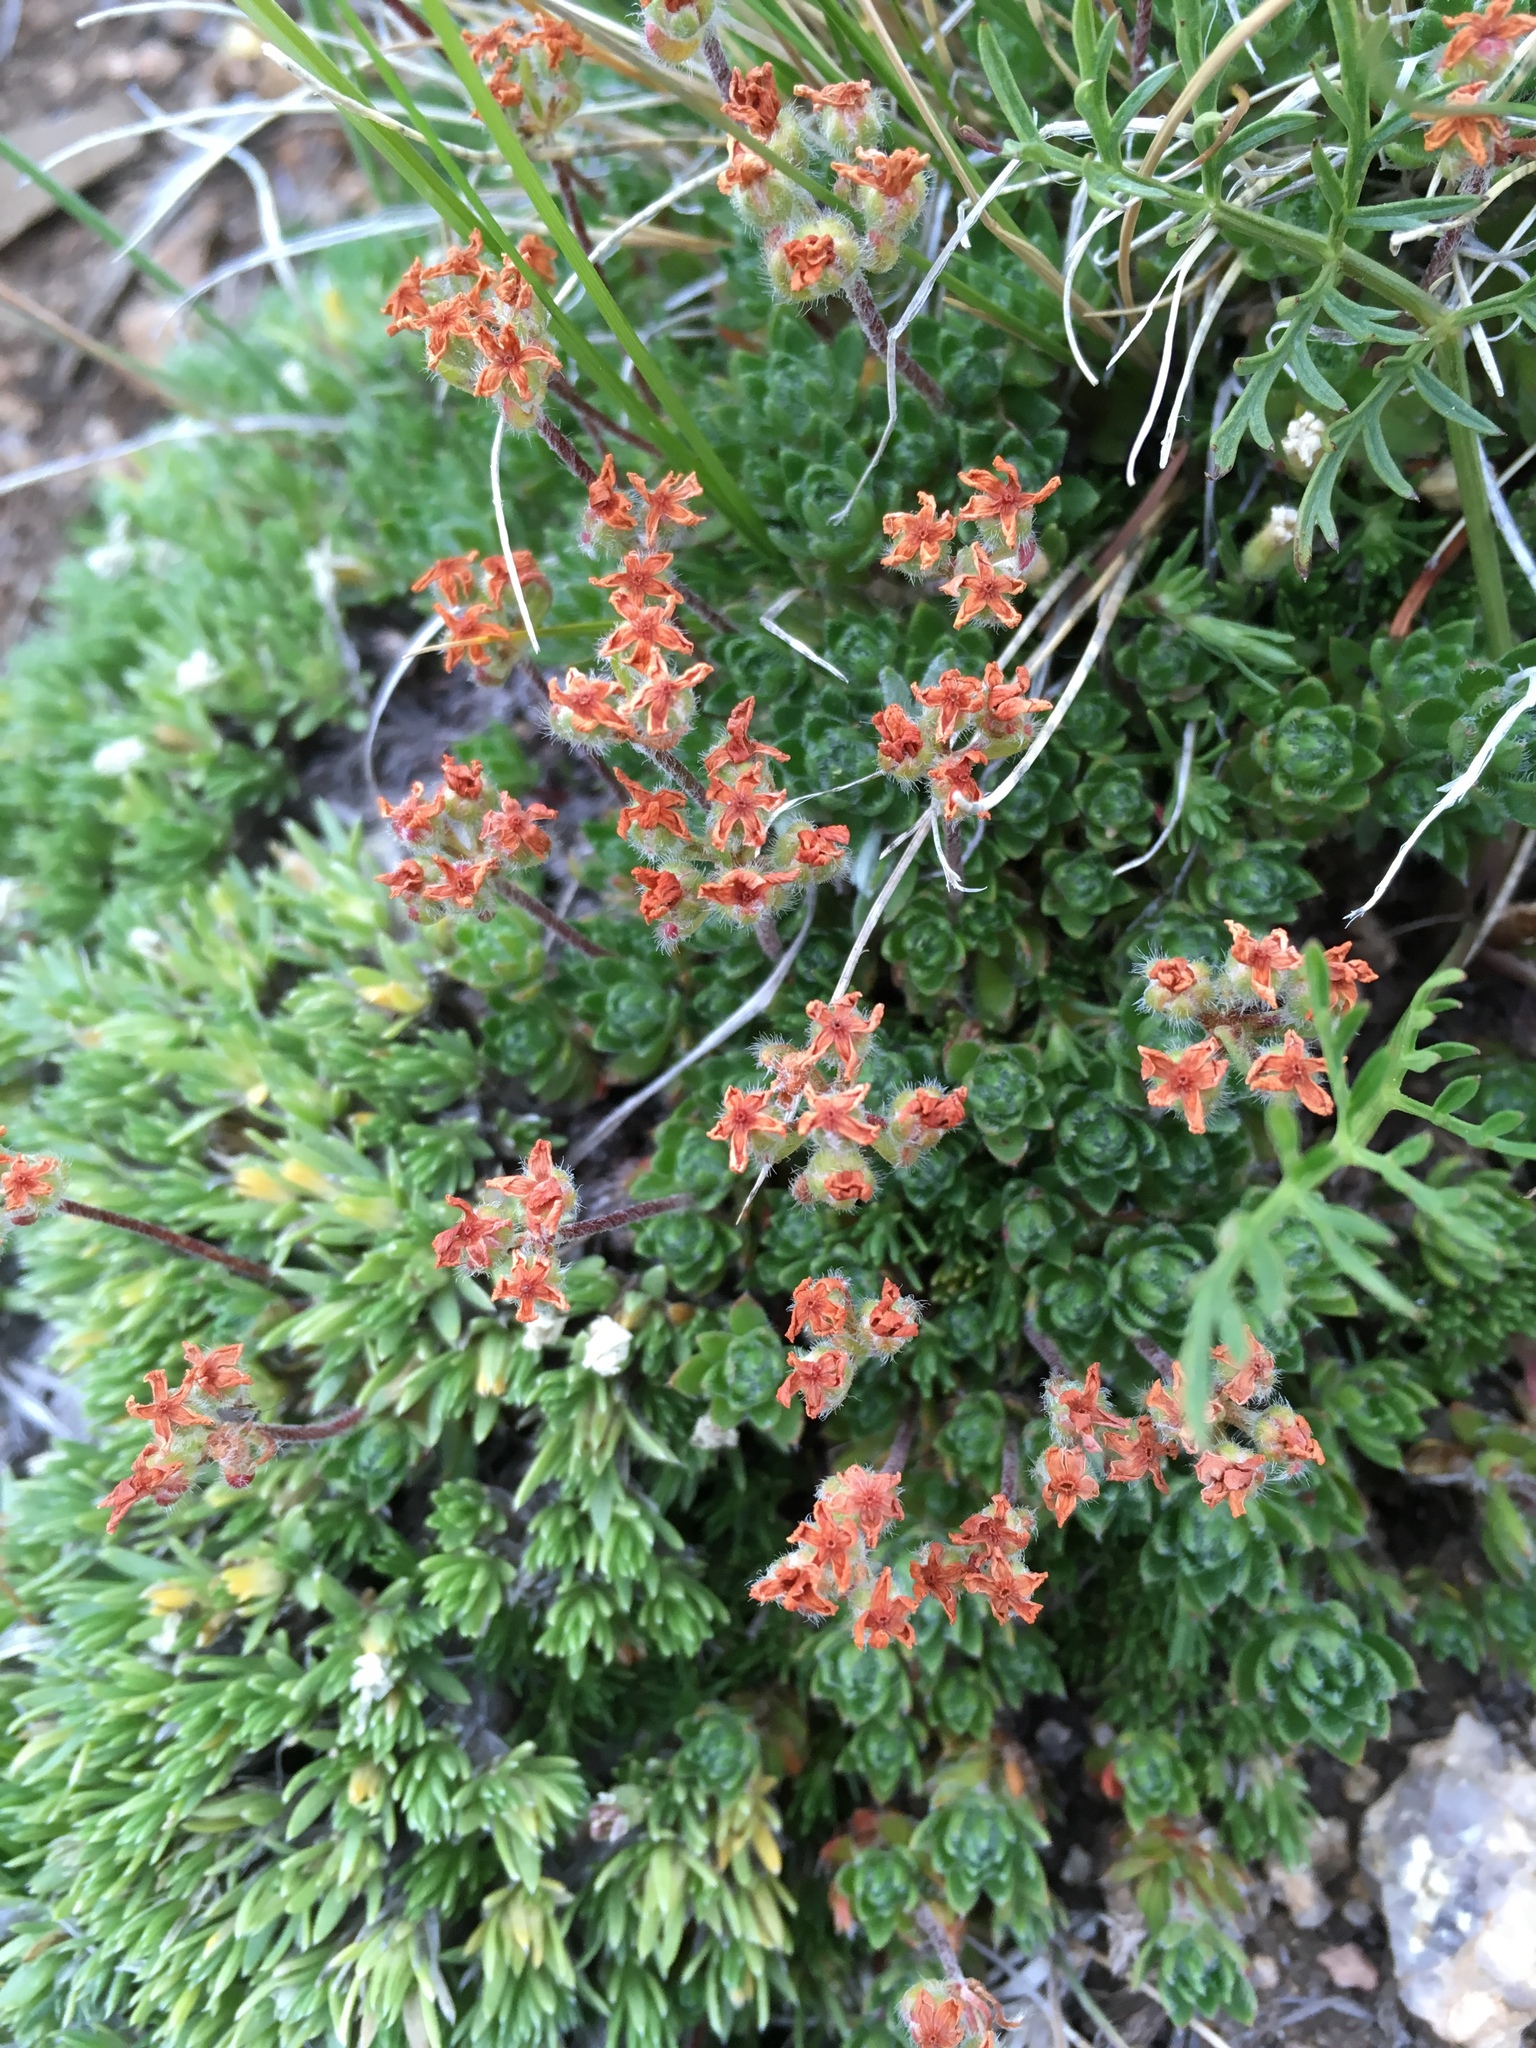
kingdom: Plantae
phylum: Tracheophyta
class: Magnoliopsida
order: Ericales
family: Primulaceae
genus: Androsace
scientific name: Androsace chamaejasme
